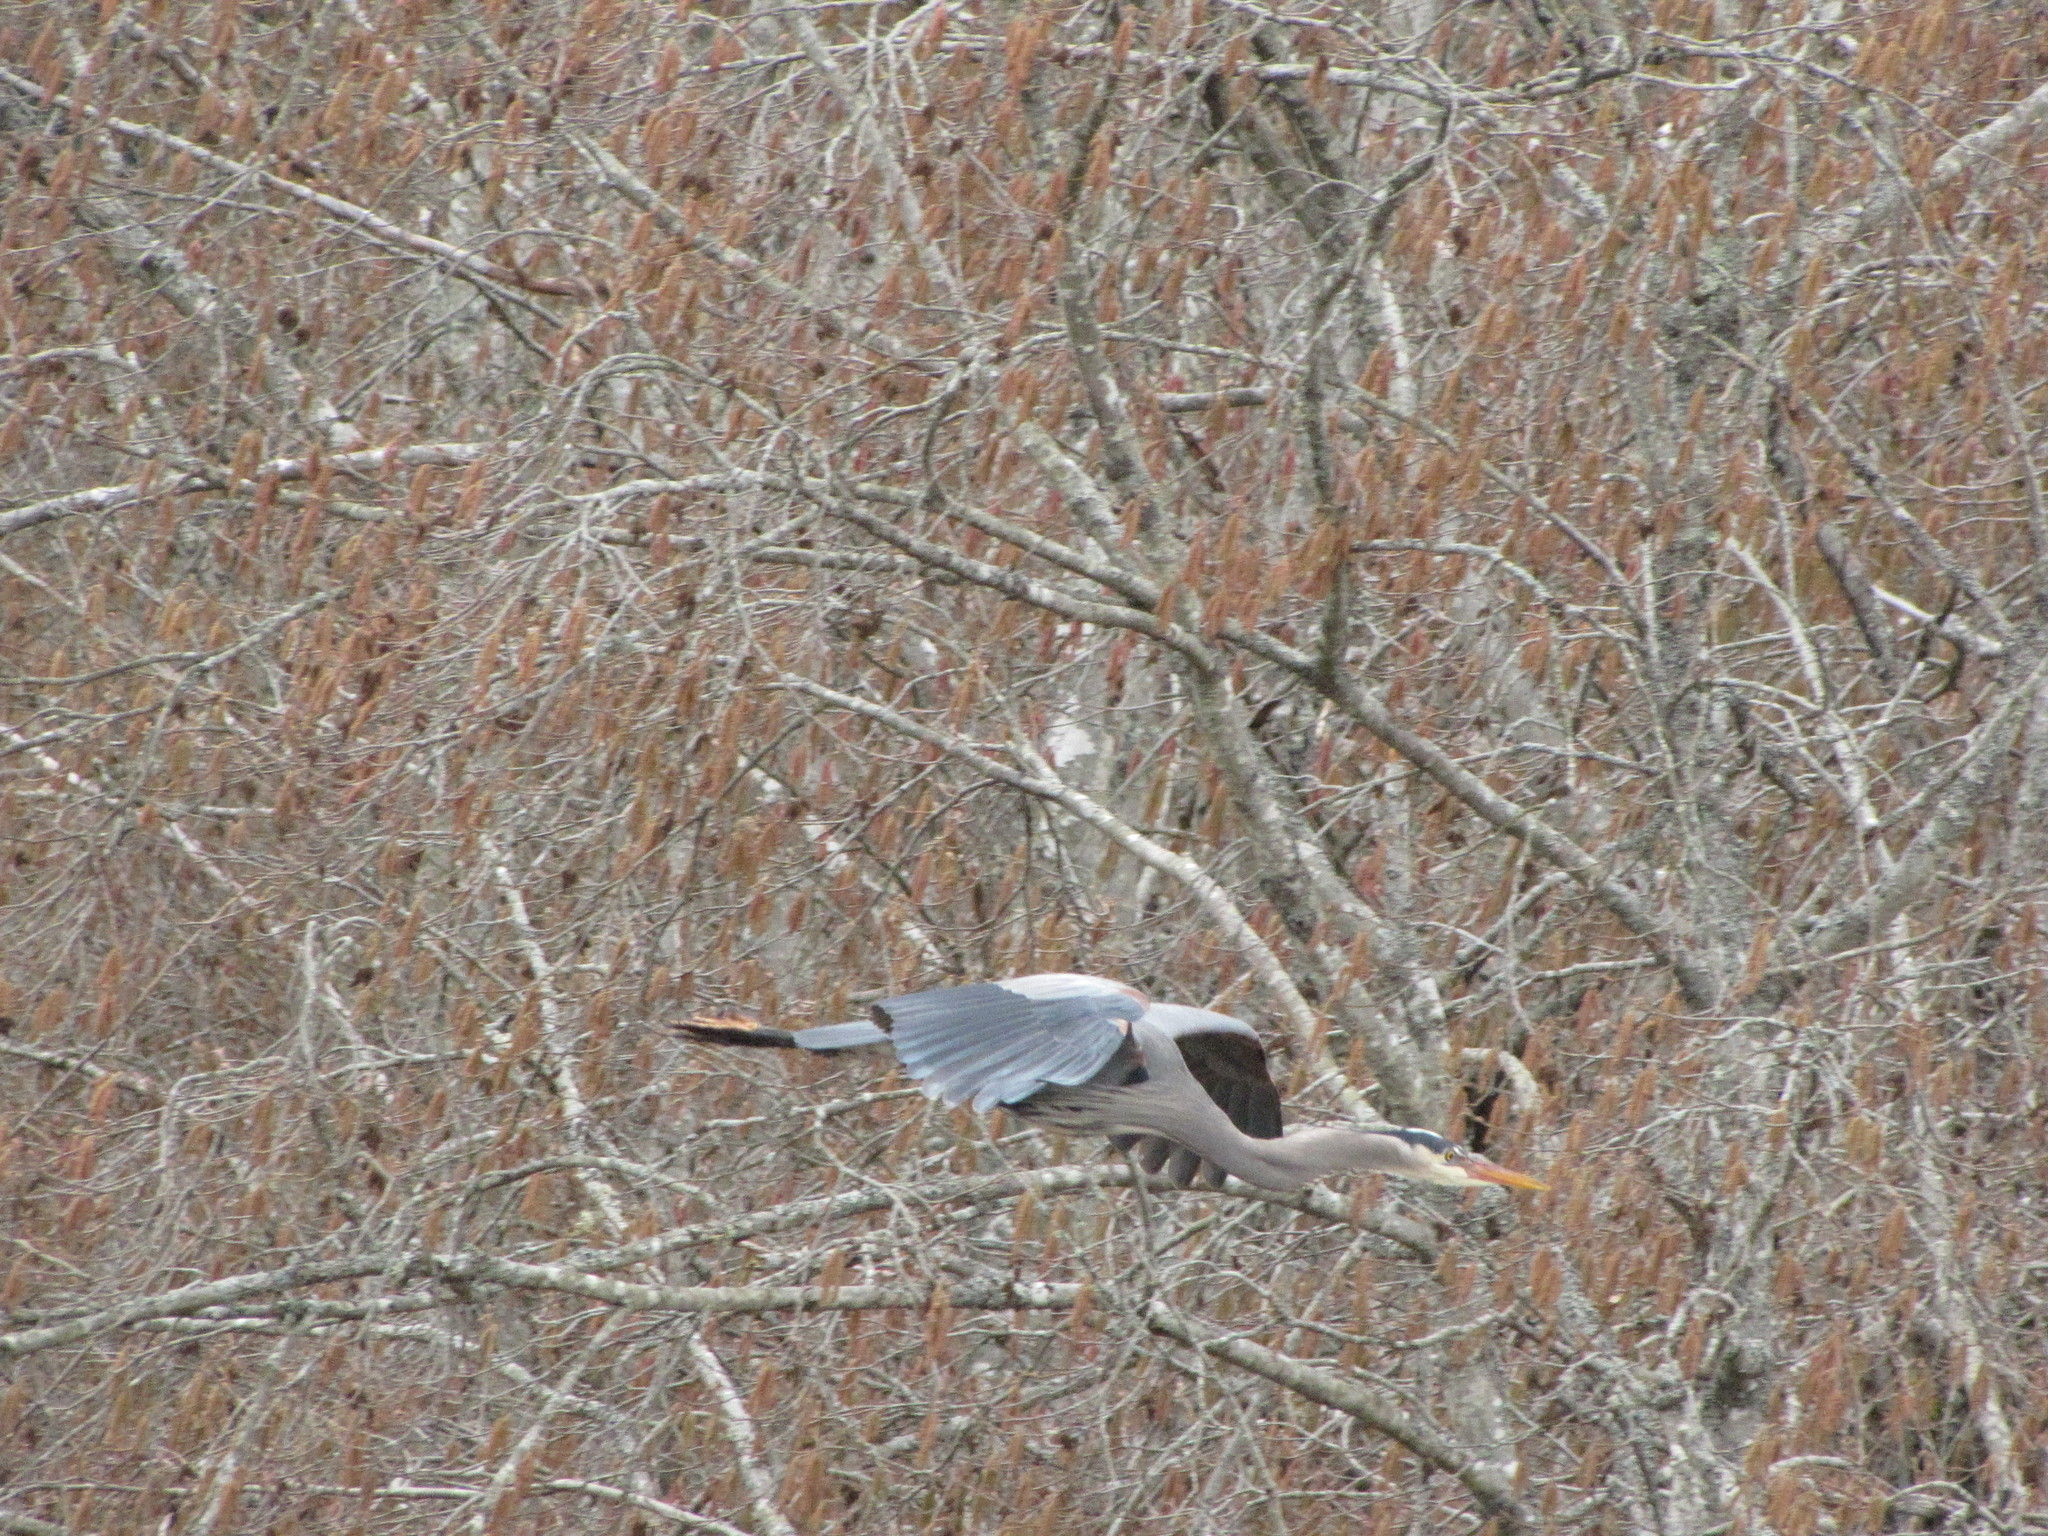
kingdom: Animalia
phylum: Chordata
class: Aves
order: Pelecaniformes
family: Ardeidae
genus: Ardea
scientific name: Ardea herodias
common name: Great blue heron
